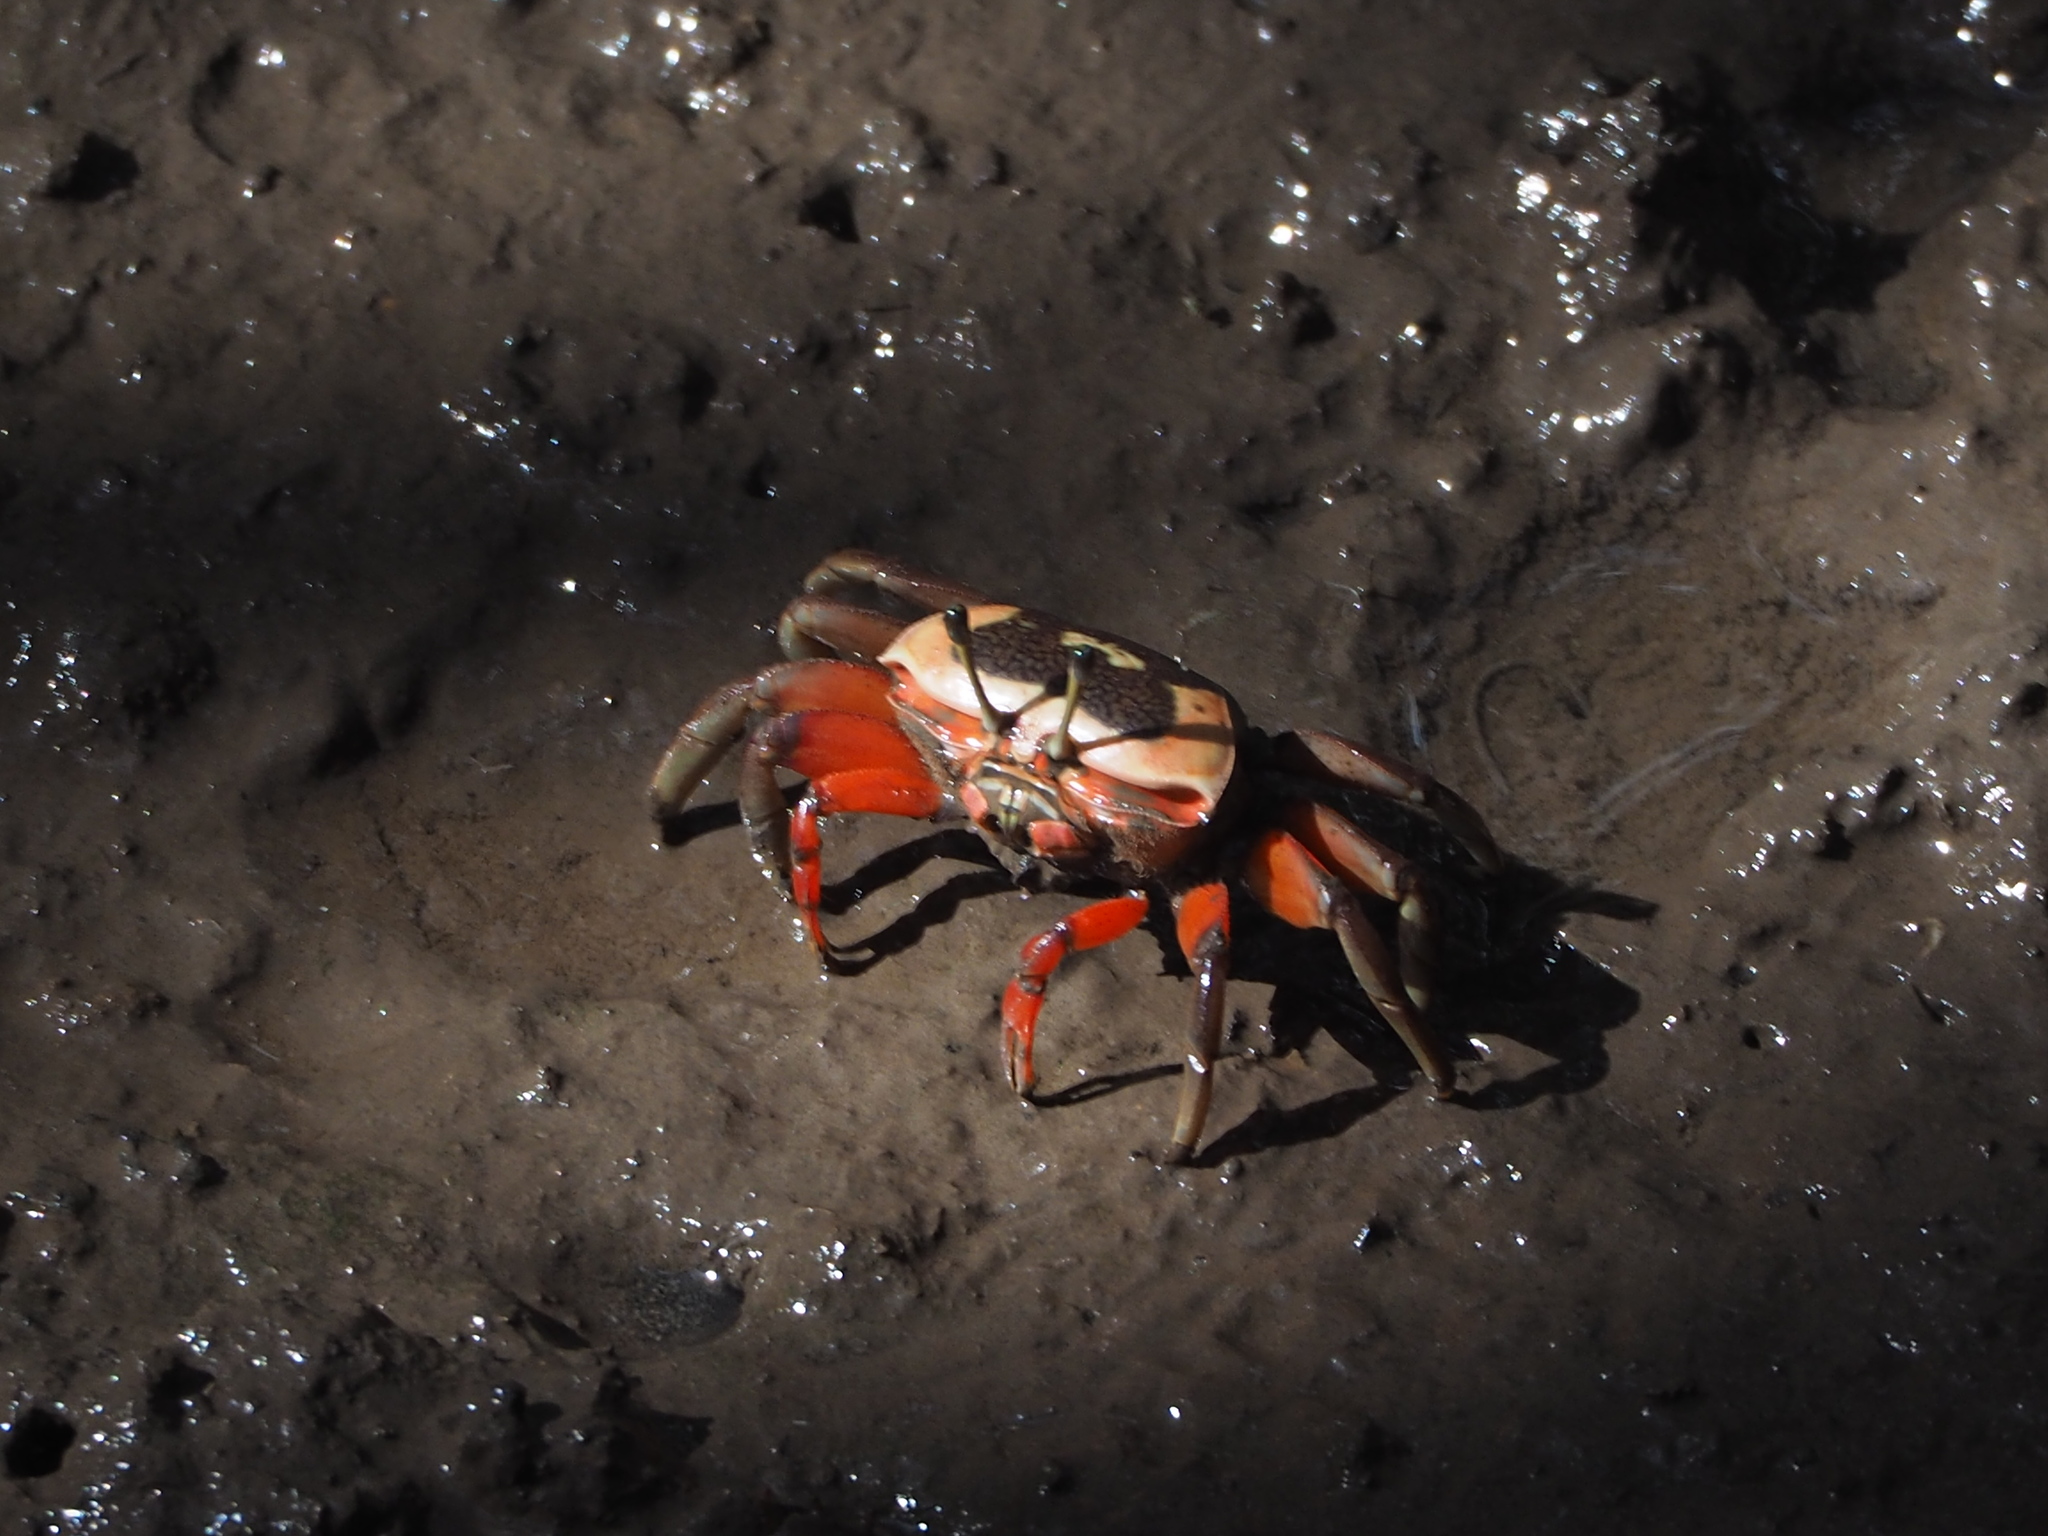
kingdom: Animalia
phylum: Arthropoda
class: Malacostraca
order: Decapoda
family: Ocypodidae
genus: Tubuca
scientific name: Tubuca arcuata
